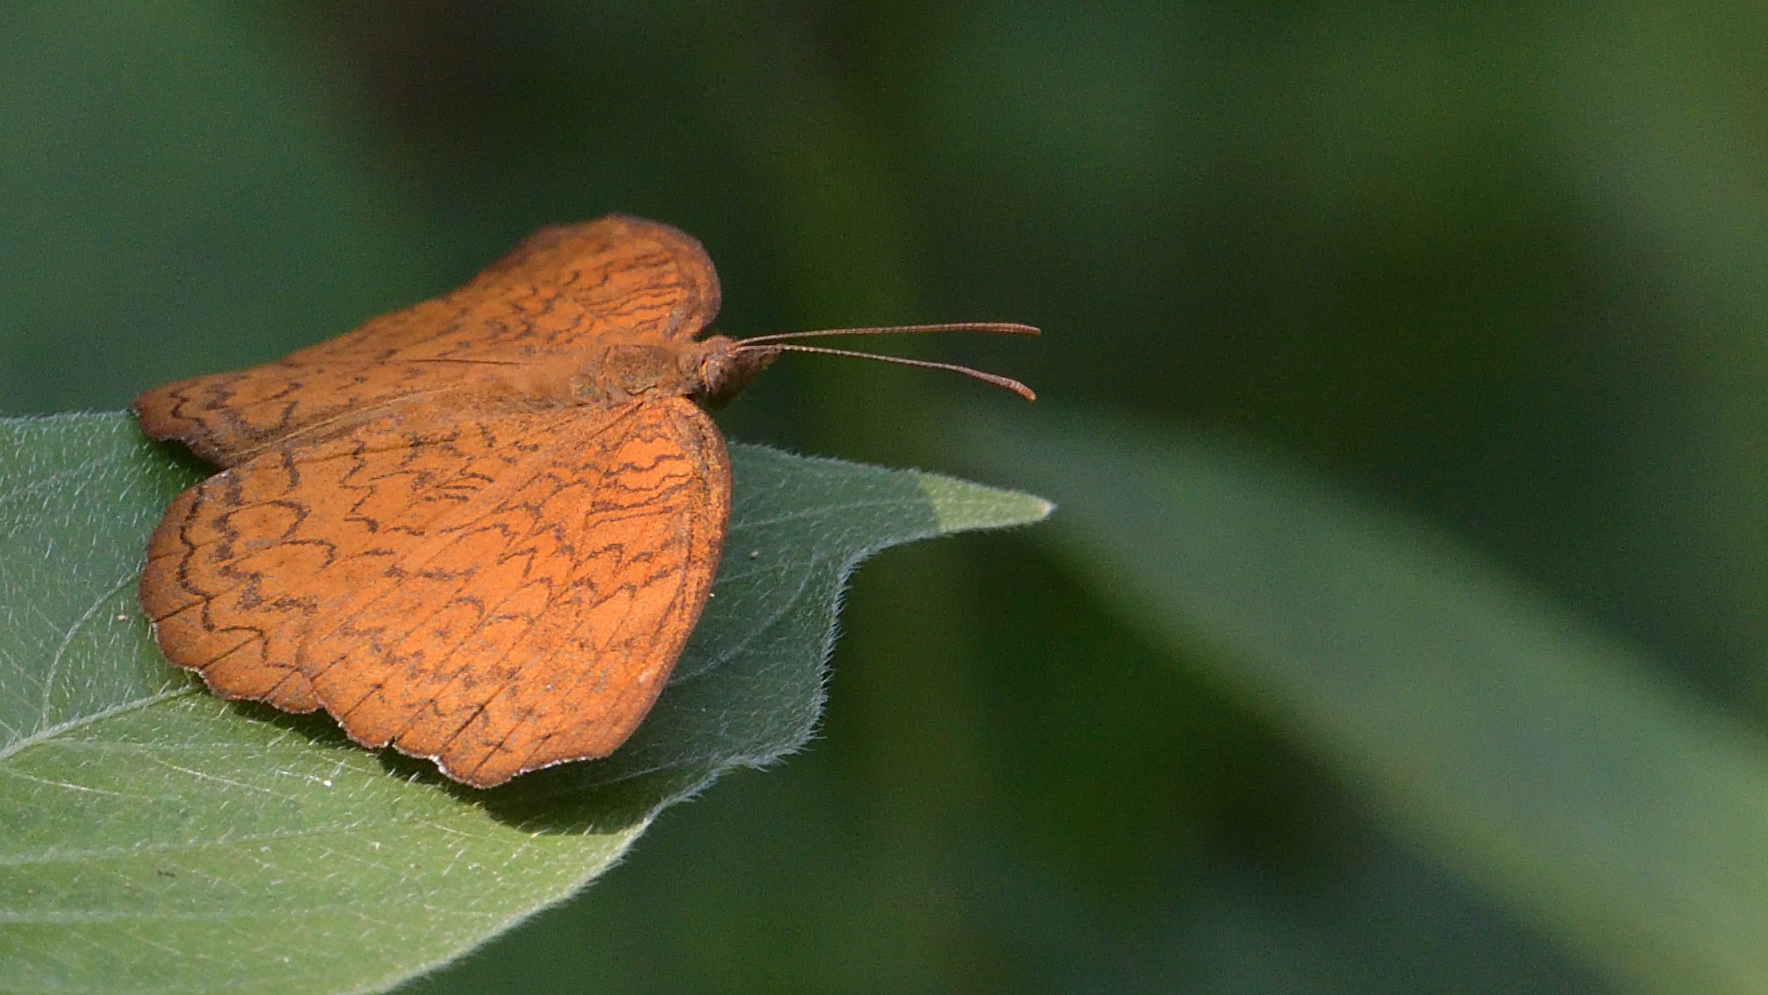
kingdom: Animalia
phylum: Arthropoda
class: Insecta
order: Lepidoptera
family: Nymphalidae
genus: Ariadne
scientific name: Ariadne merione
